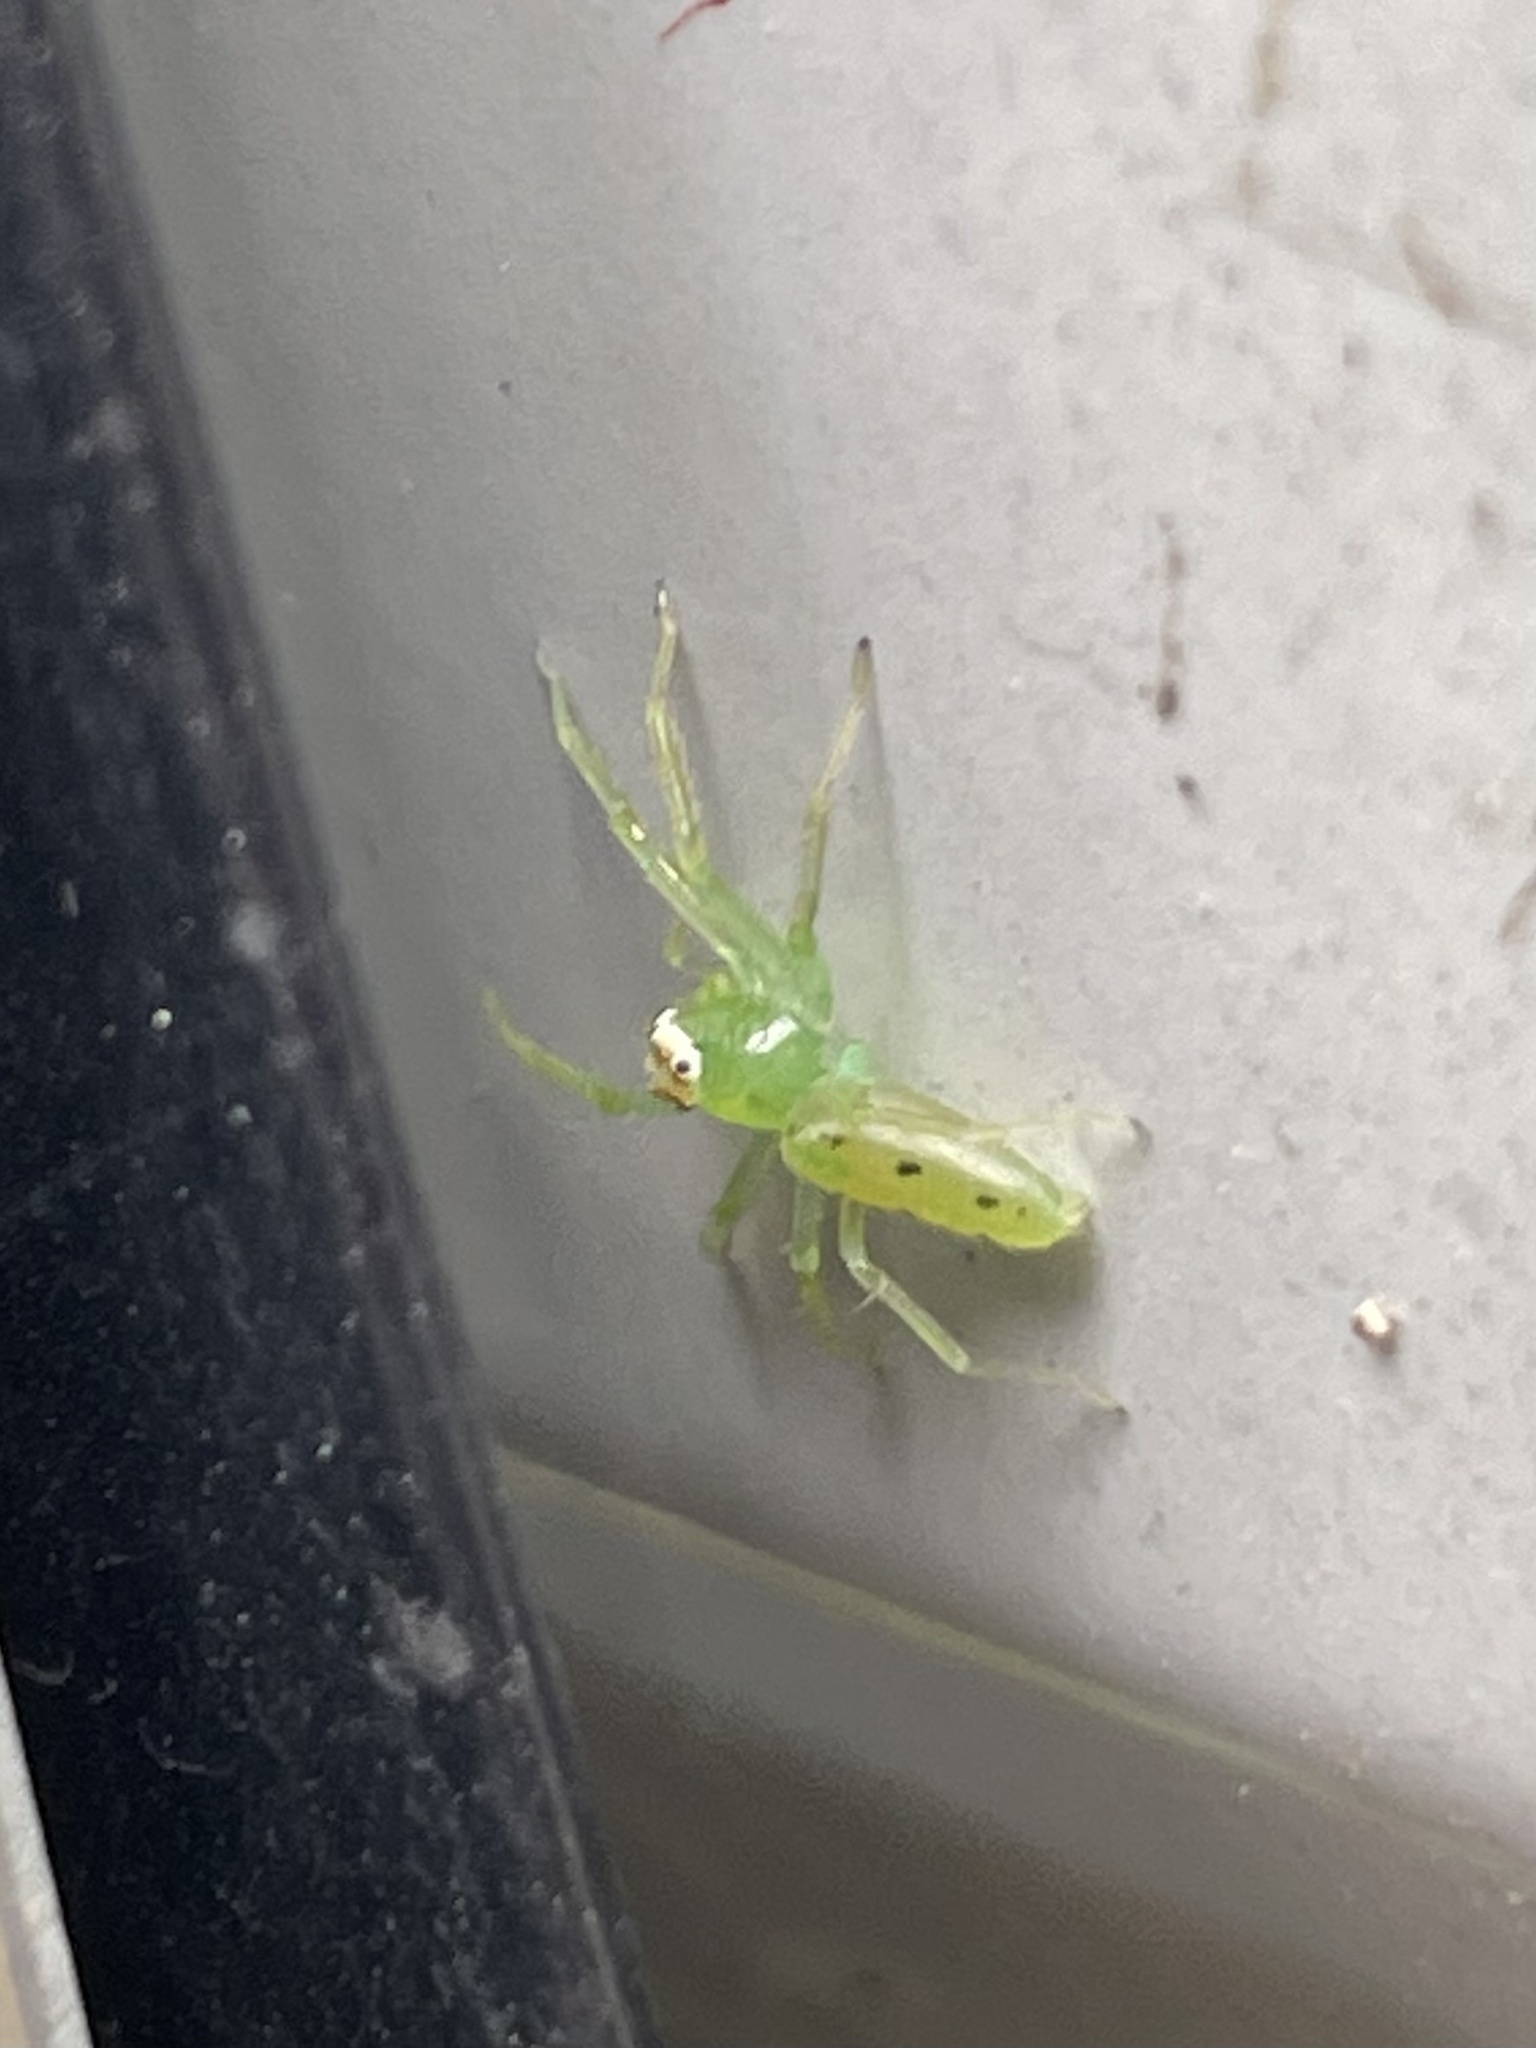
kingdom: Animalia
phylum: Arthropoda
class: Arachnida
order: Araneae
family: Salticidae
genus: Lyssomanes
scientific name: Lyssomanes viridis
